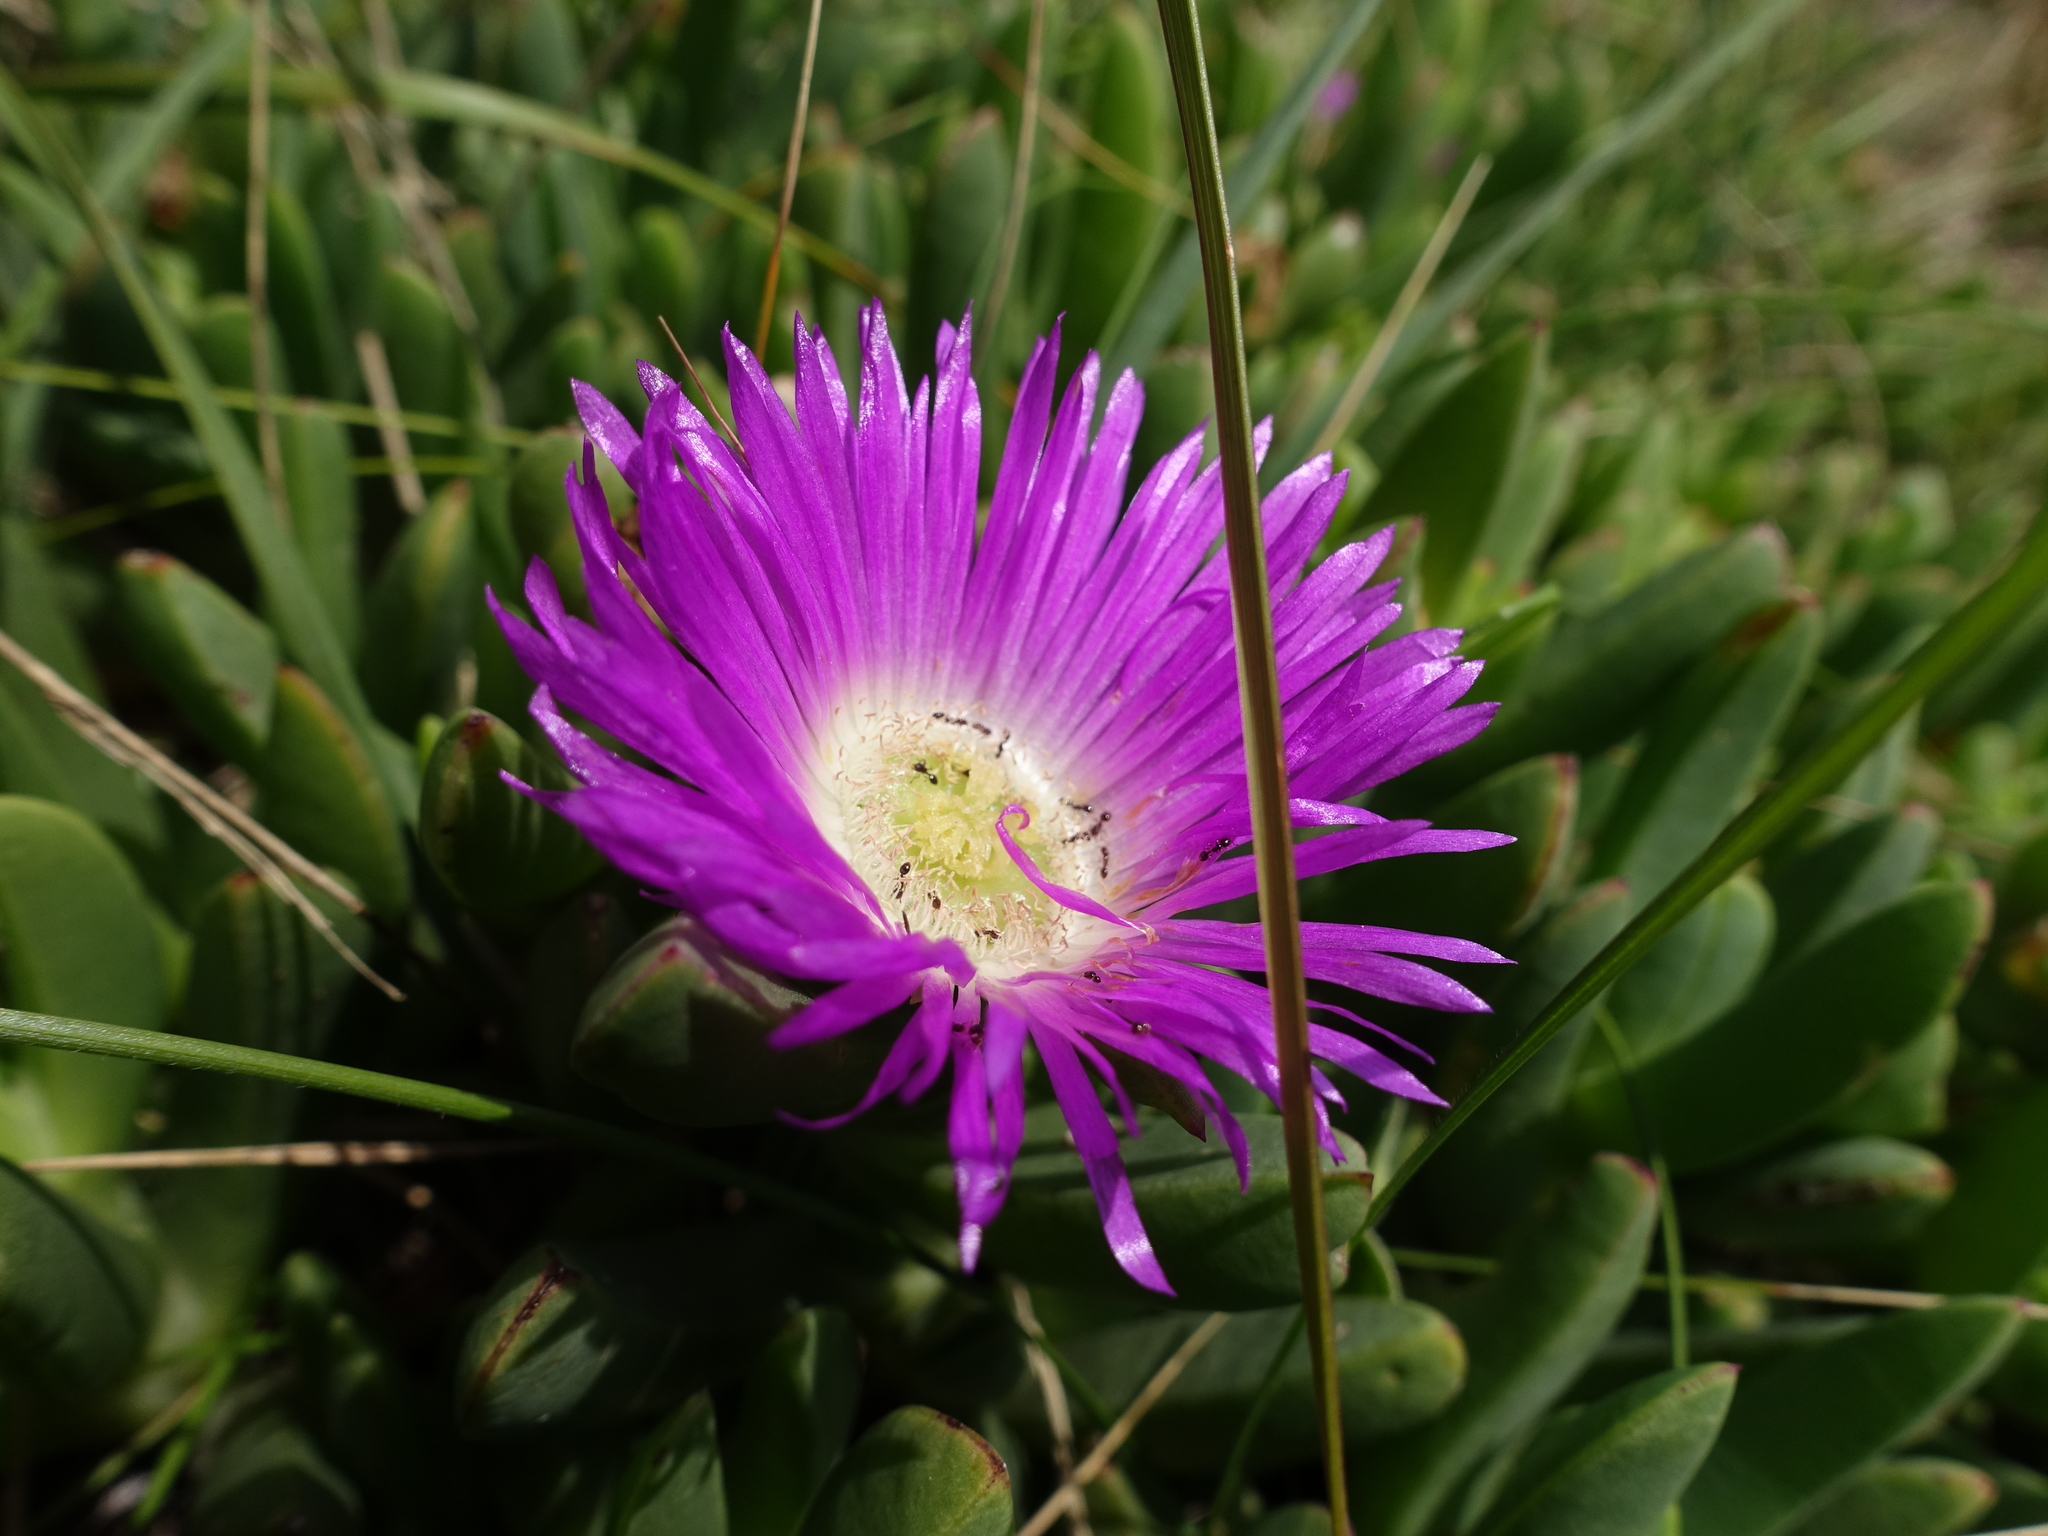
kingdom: Plantae
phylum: Tracheophyta
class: Magnoliopsida
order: Caryophyllales
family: Aizoaceae
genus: Carpobrotus
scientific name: Carpobrotus rossii
